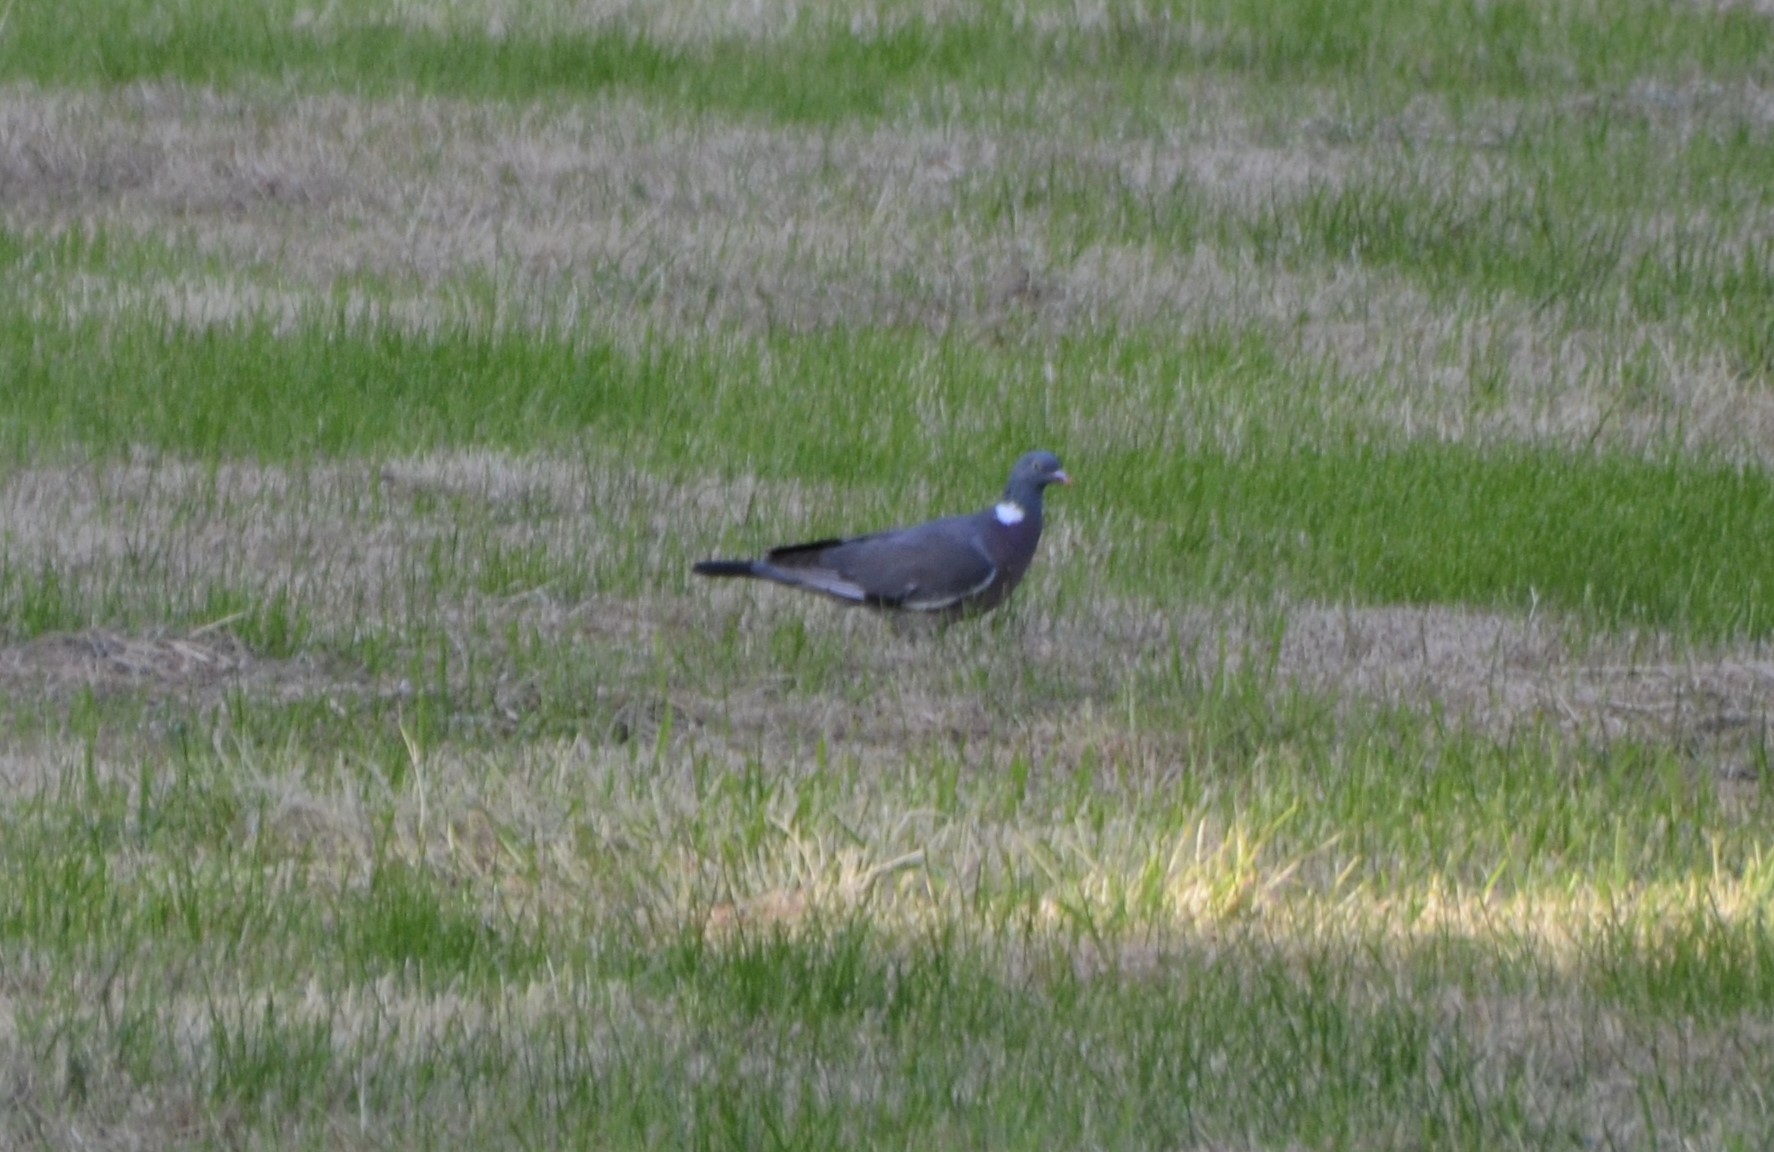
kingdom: Animalia
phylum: Chordata
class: Aves
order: Columbiformes
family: Columbidae
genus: Columba
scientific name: Columba palumbus
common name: Common wood pigeon
